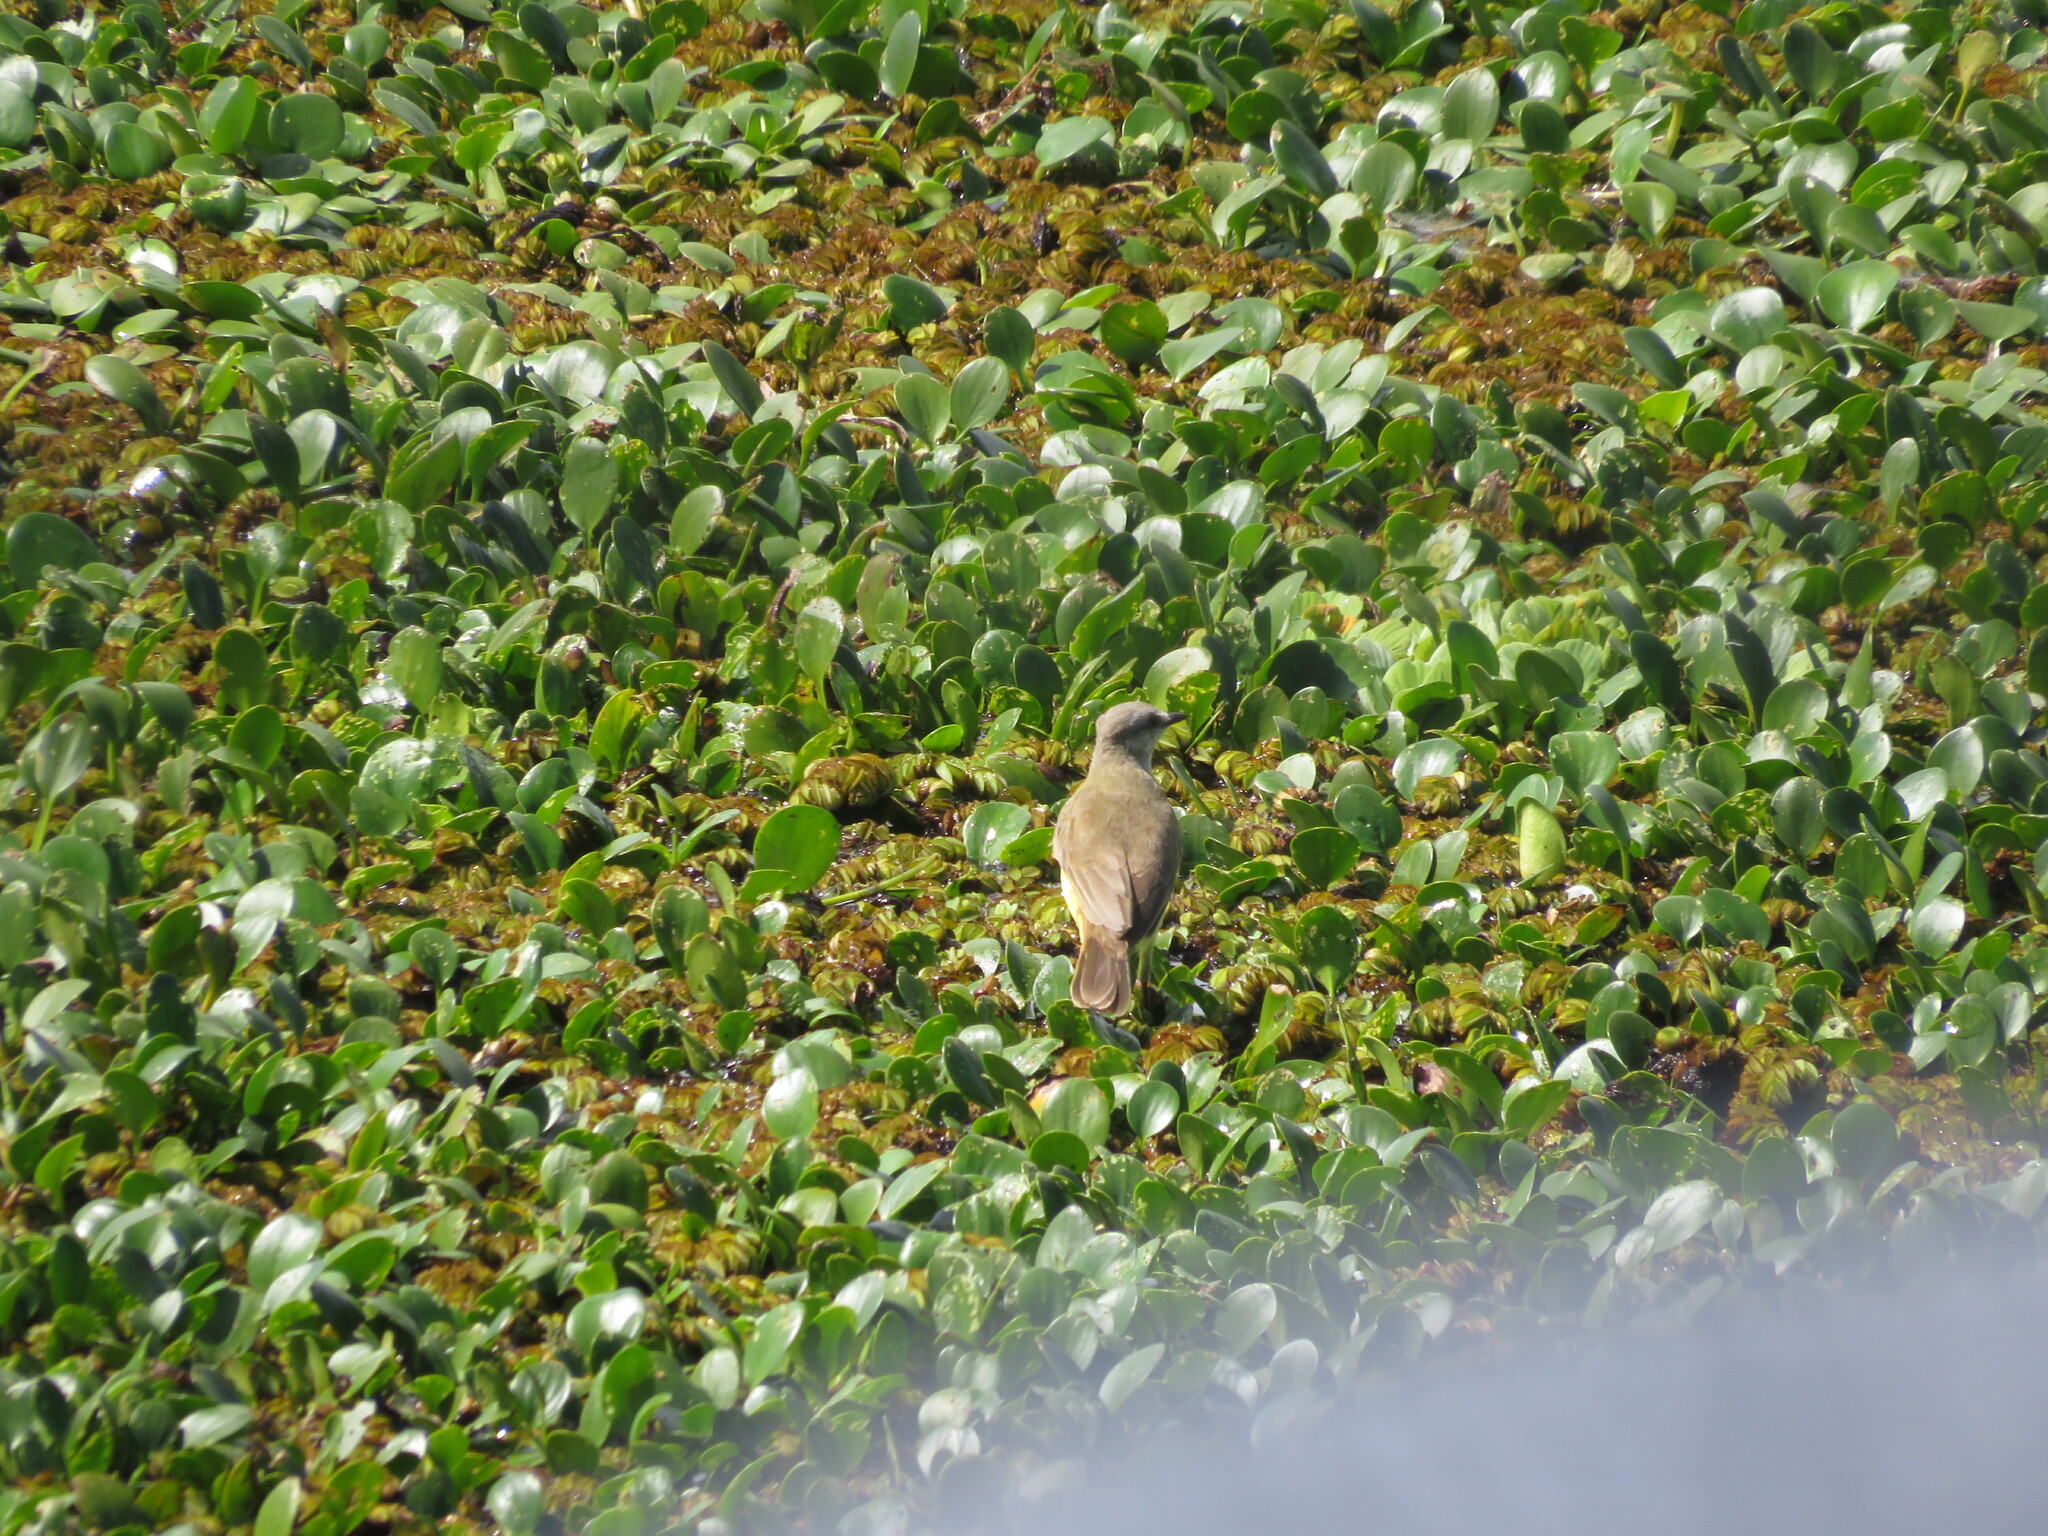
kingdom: Animalia
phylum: Chordata
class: Aves
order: Passeriformes
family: Tyrannidae
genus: Machetornis
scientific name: Machetornis rixosa
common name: Cattle tyrant
